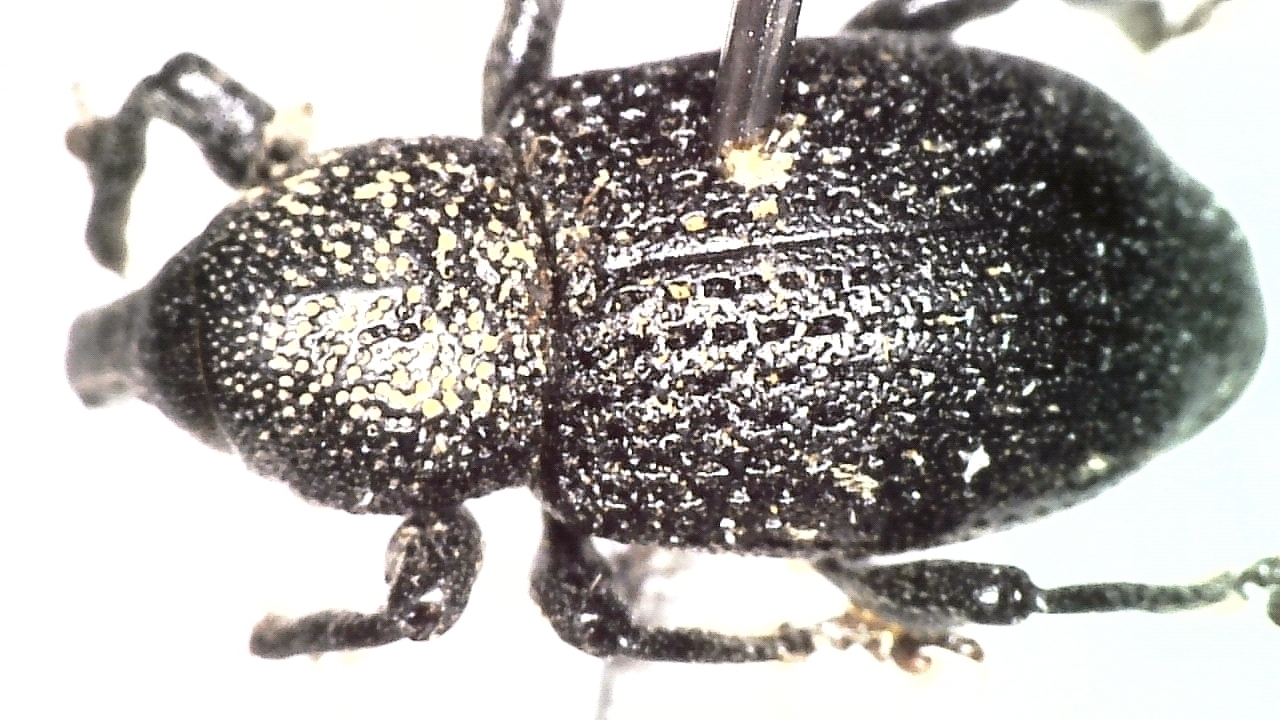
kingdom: Animalia
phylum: Arthropoda
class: Insecta
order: Coleoptera
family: Curculionidae
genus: Hylobius
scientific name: Hylobius excavatus
